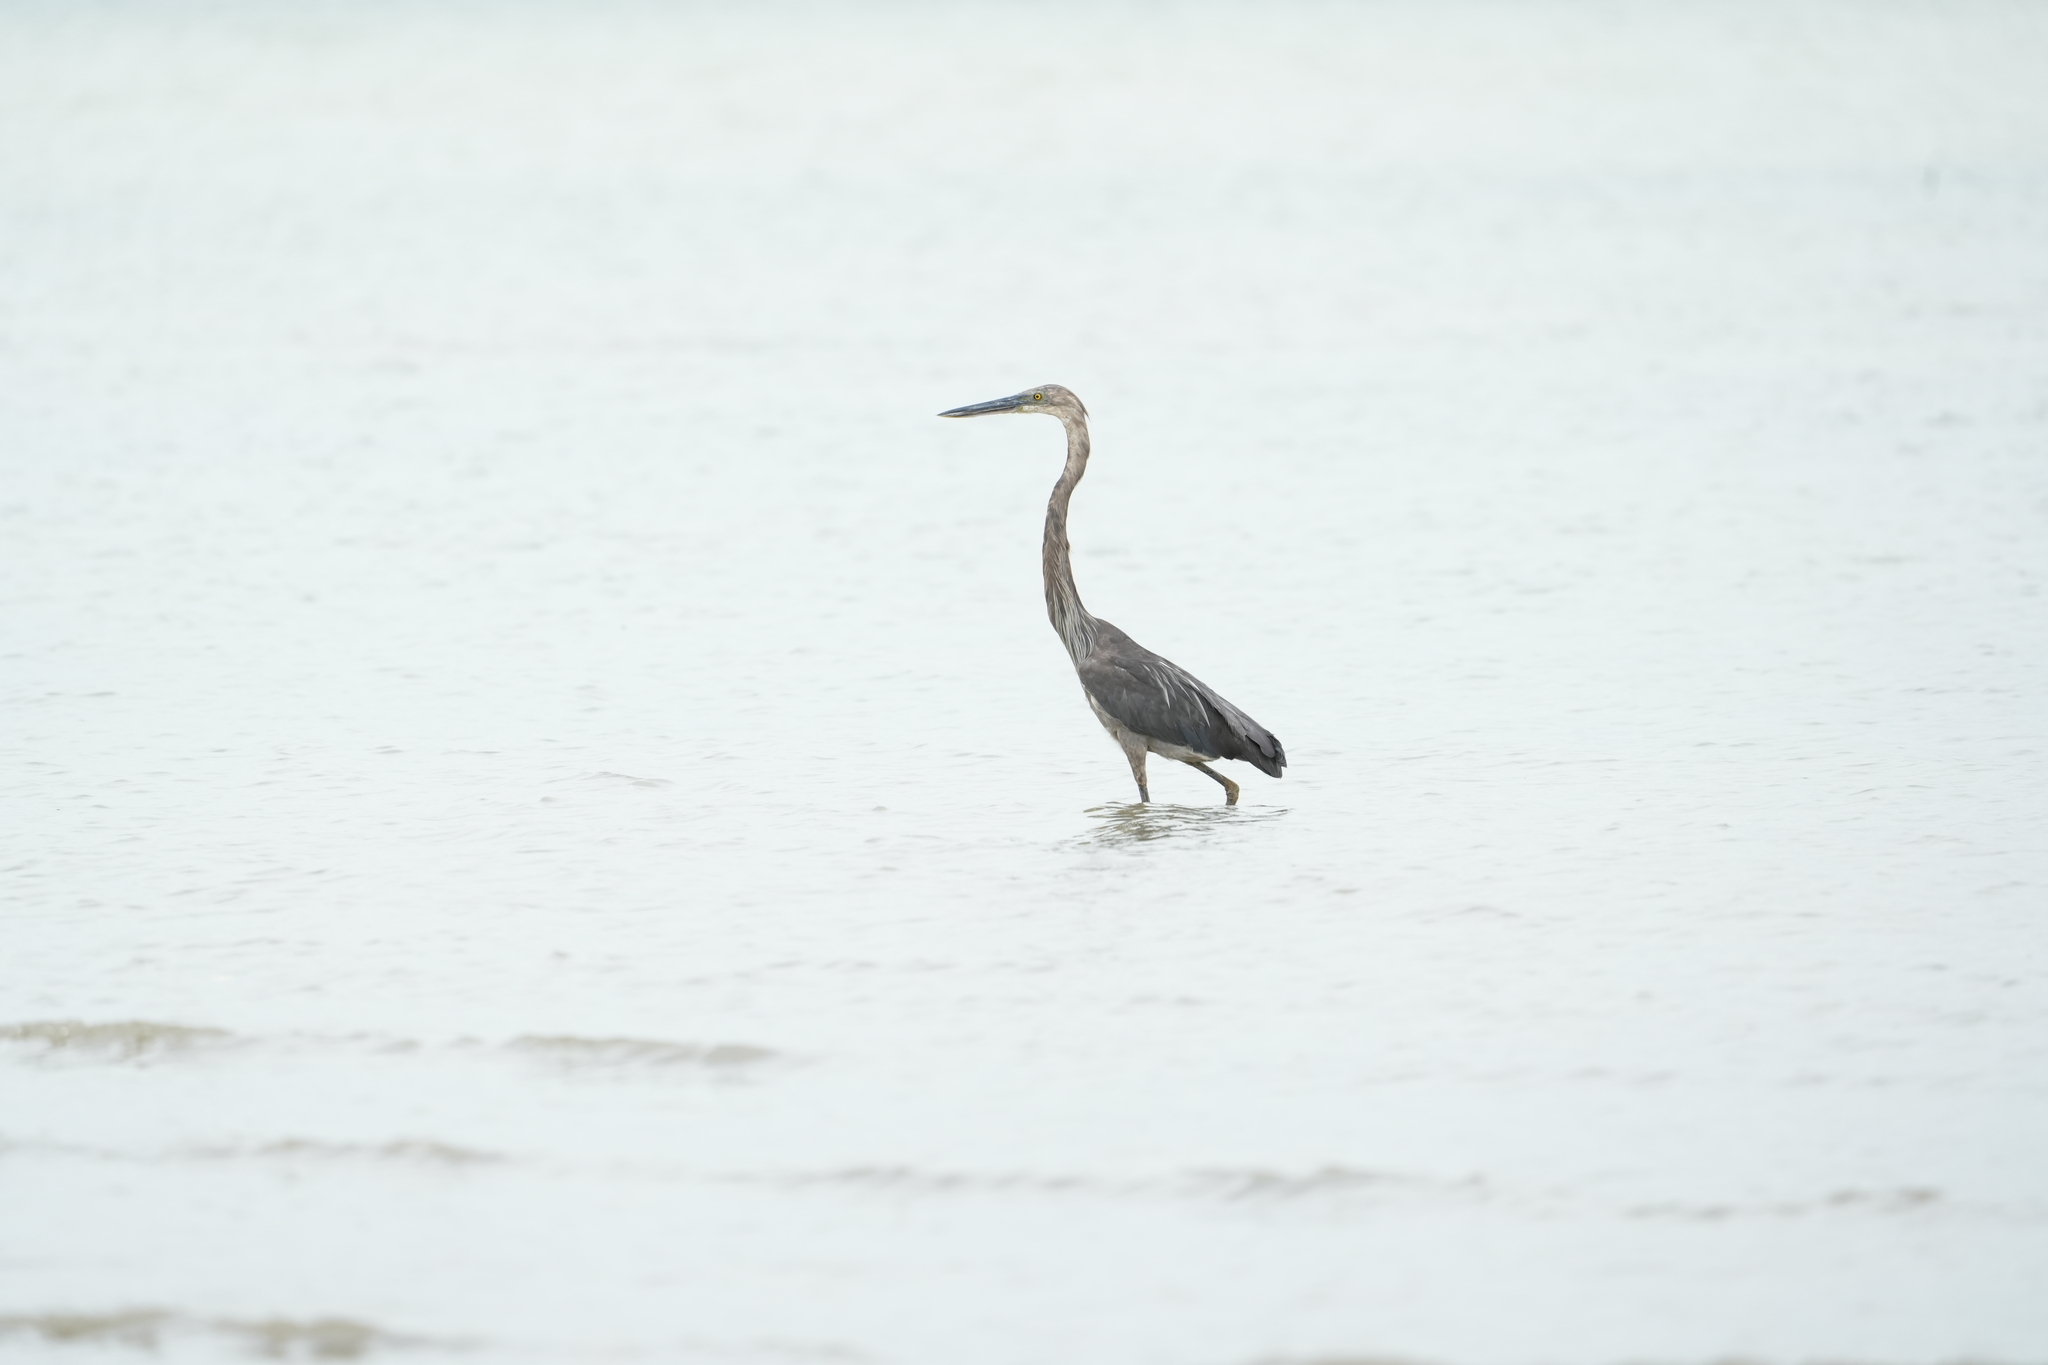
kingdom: Animalia
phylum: Chordata
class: Aves
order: Pelecaniformes
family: Ardeidae
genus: Ardea
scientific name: Ardea sumatrana
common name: Great-billed heron
